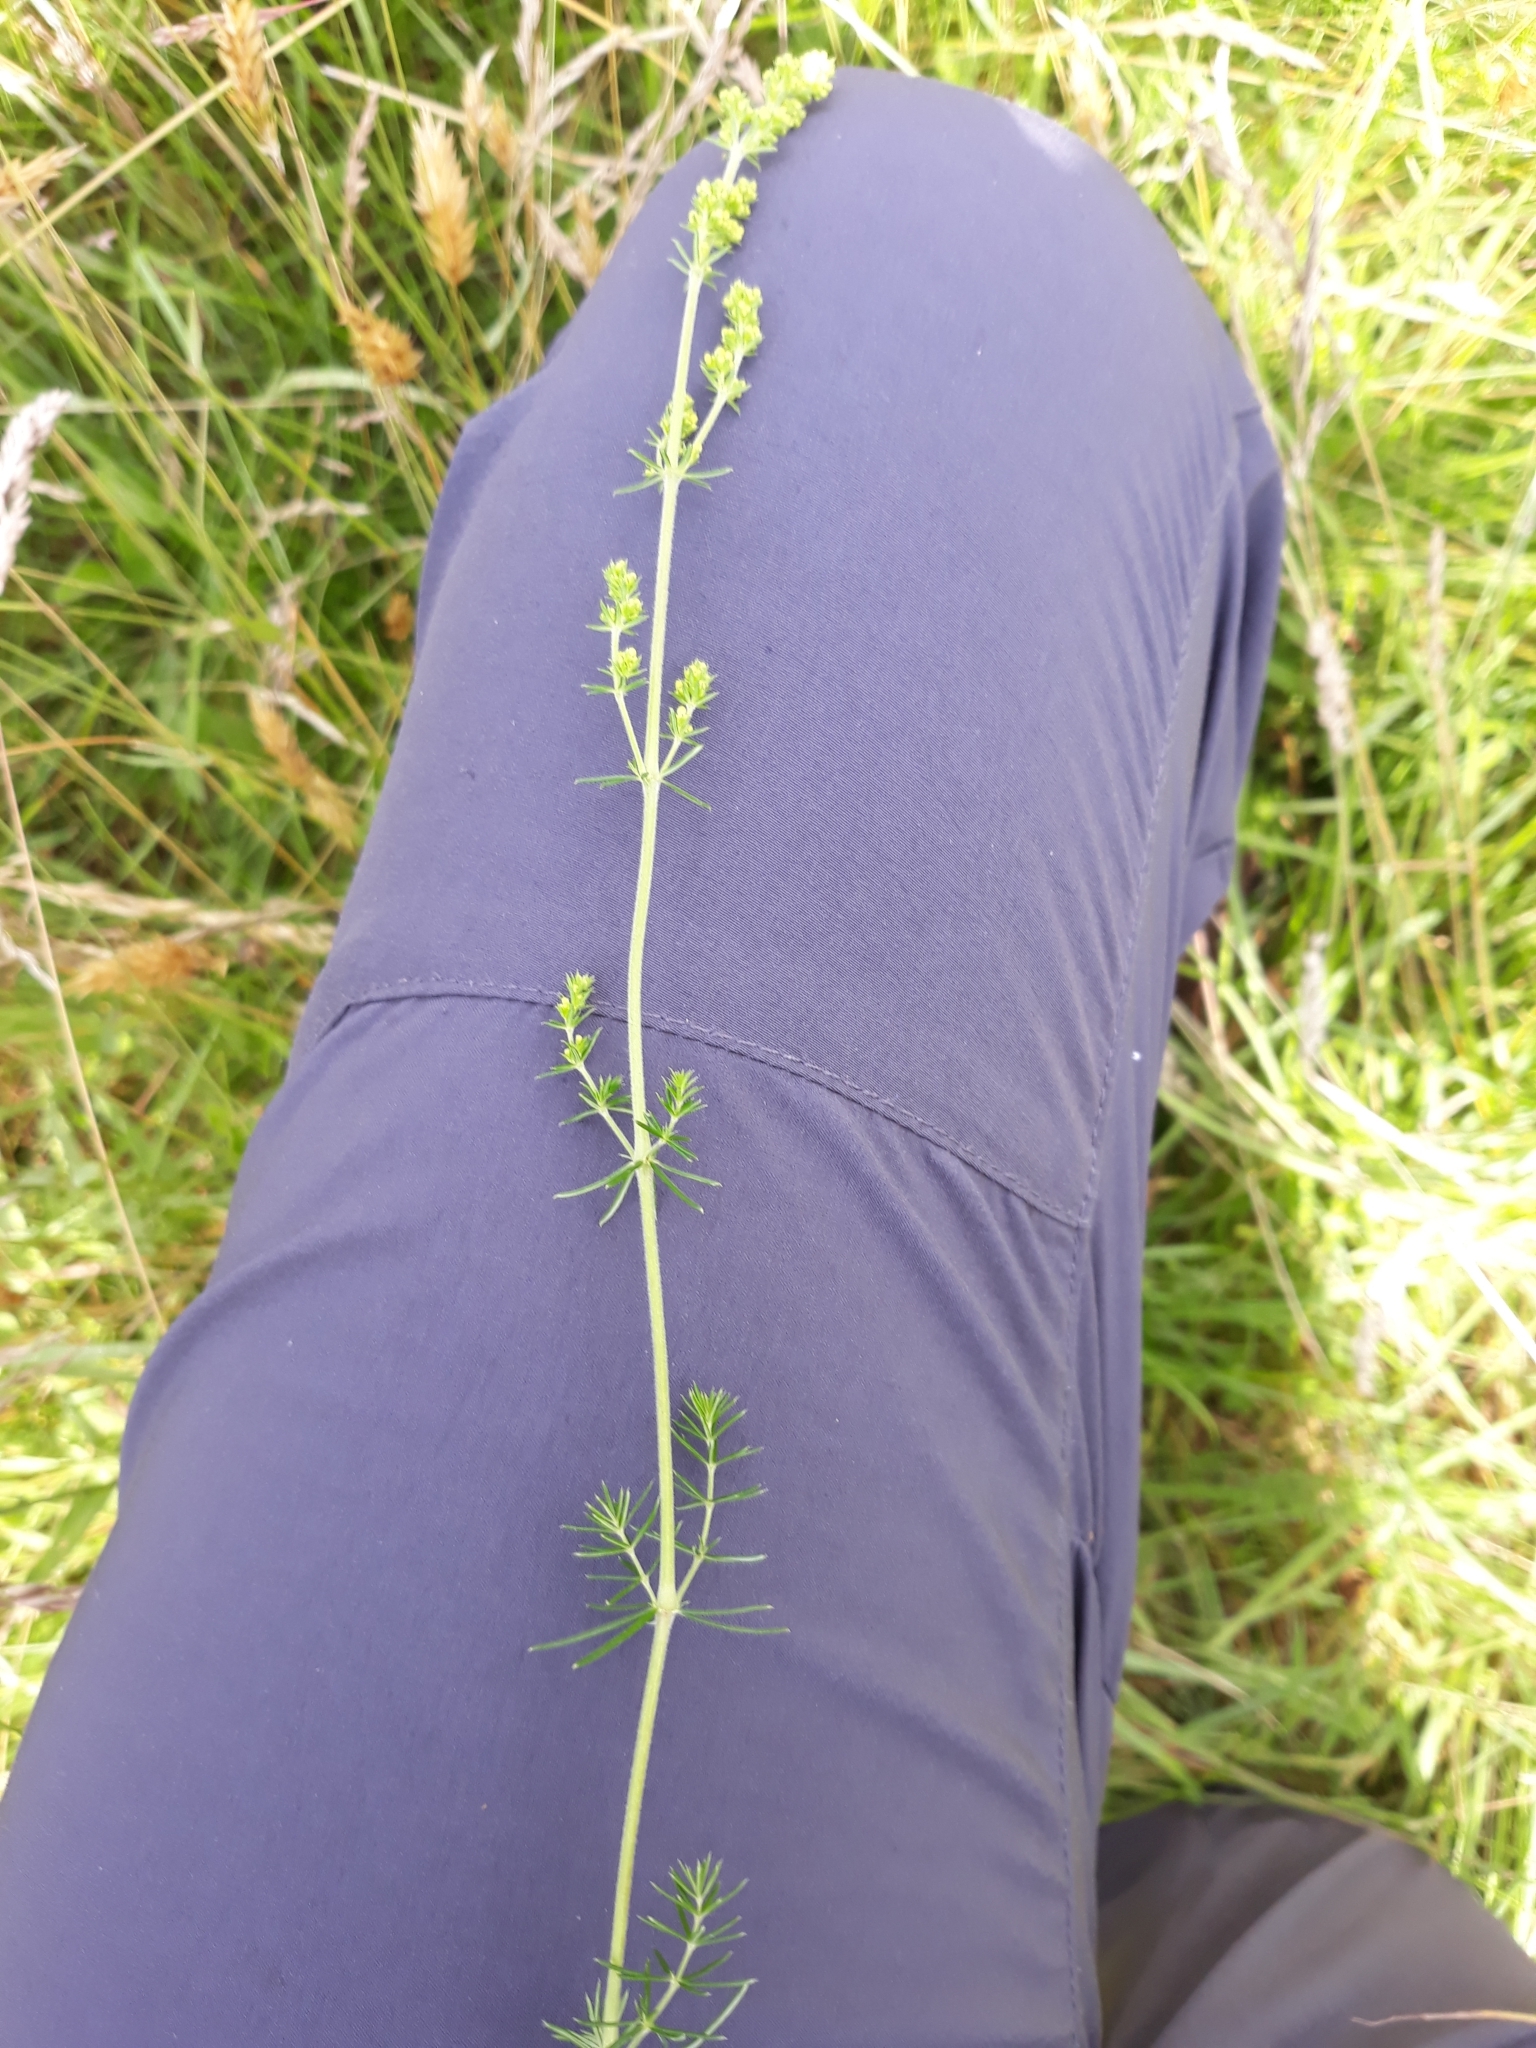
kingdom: Plantae
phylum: Tracheophyta
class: Magnoliopsida
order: Gentianales
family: Rubiaceae
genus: Galium
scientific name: Galium verum
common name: Lady's bedstraw
